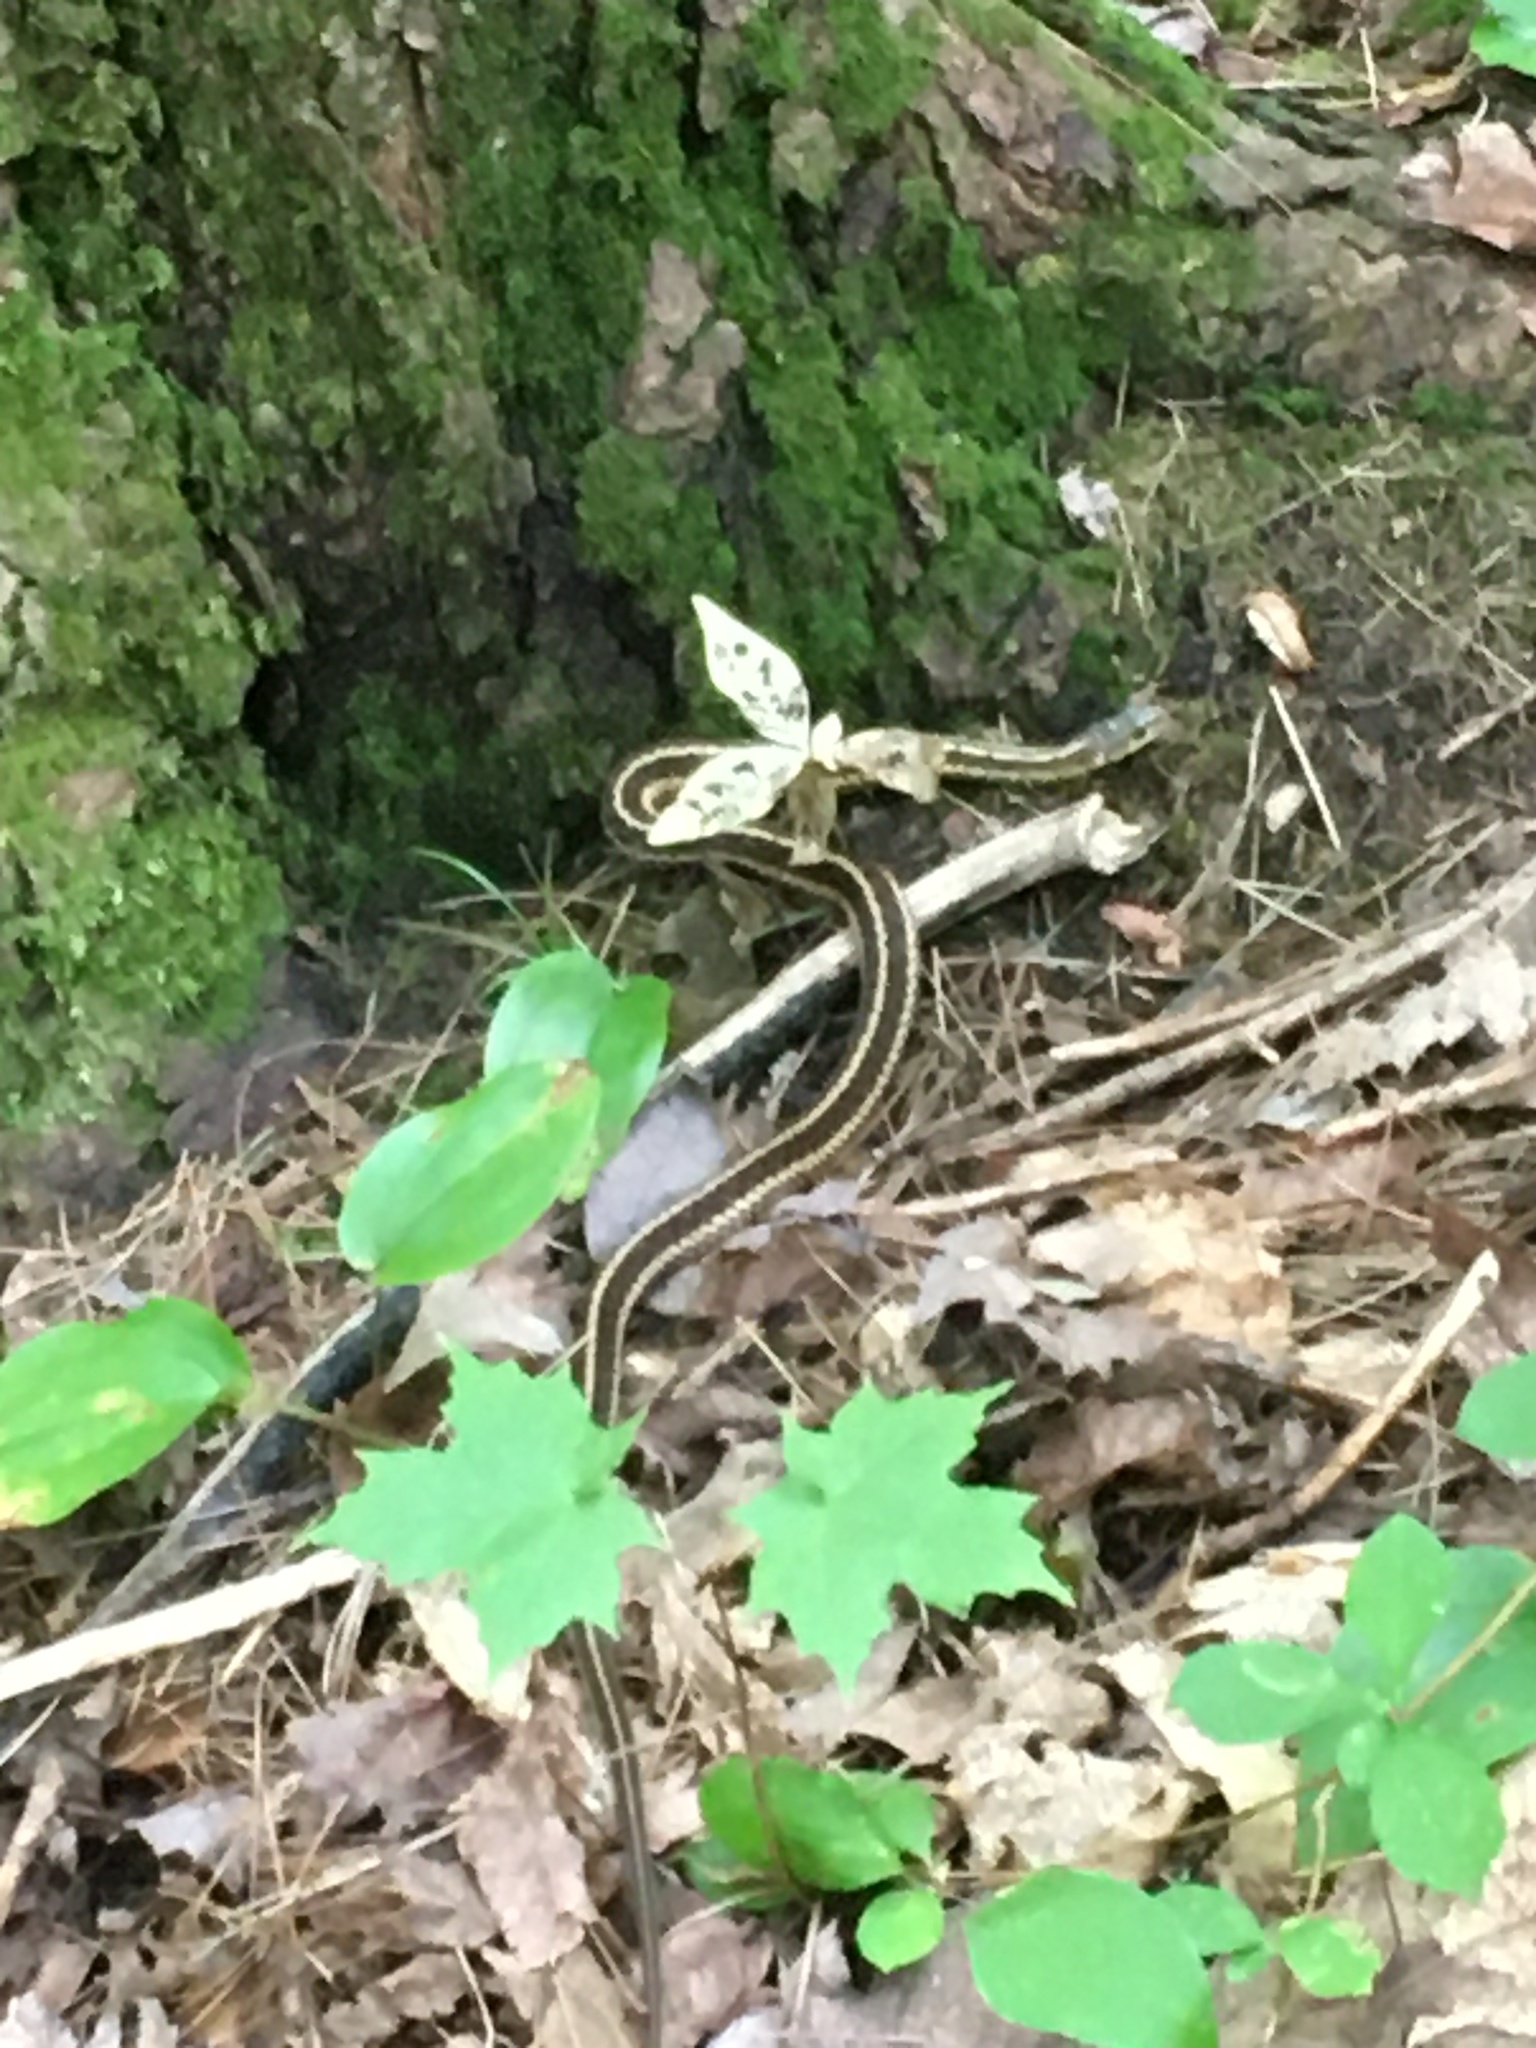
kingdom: Animalia
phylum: Chordata
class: Squamata
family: Colubridae
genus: Thamnophis
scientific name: Thamnophis sirtalis
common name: Common garter snake
